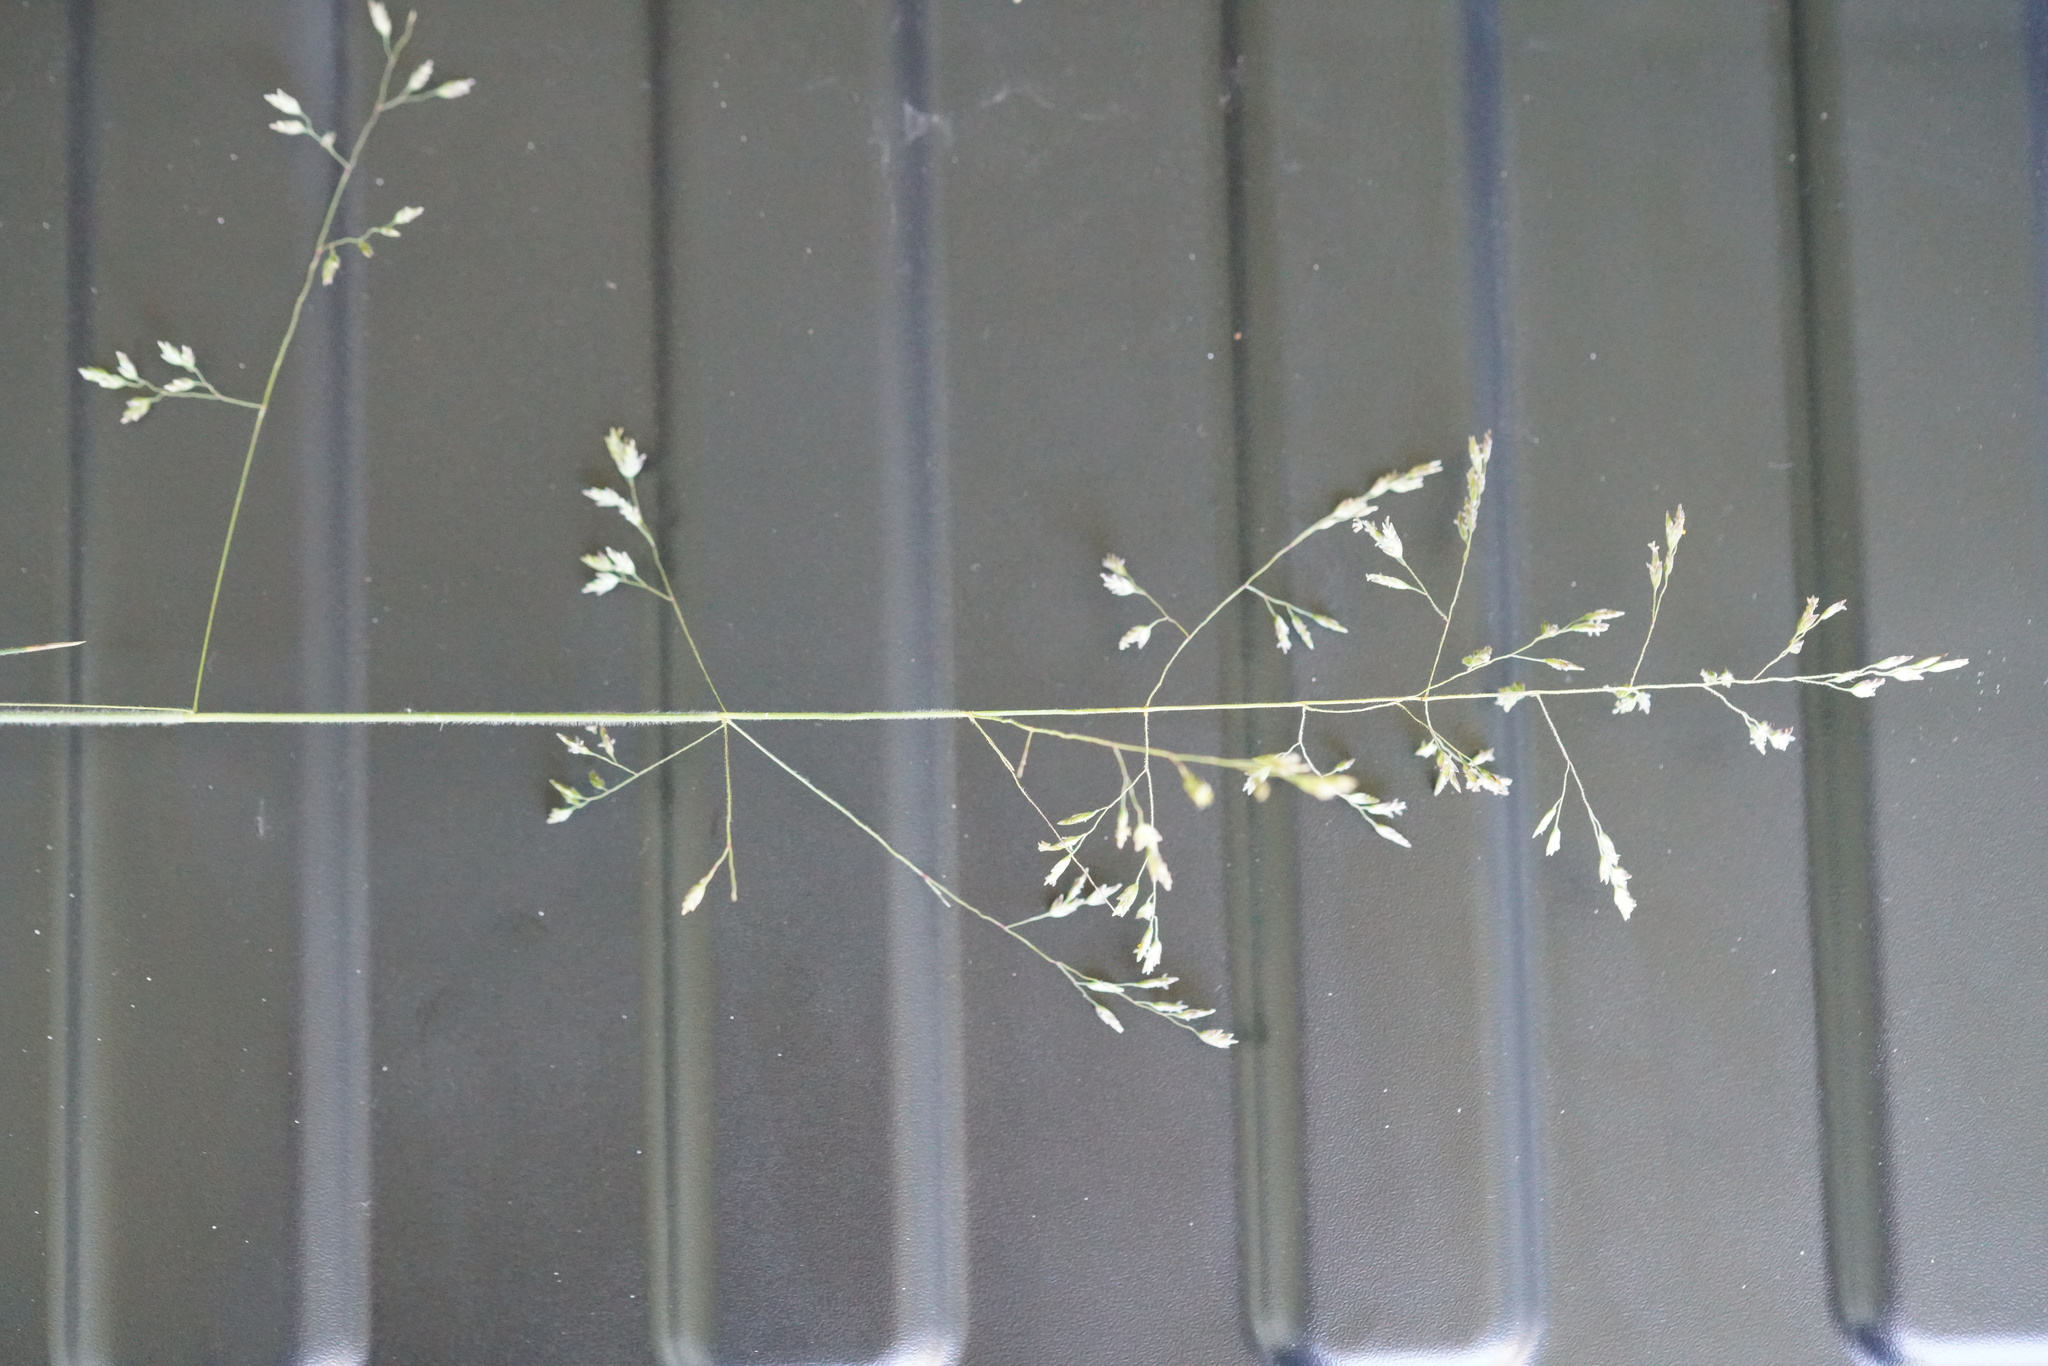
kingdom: Plantae
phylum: Tracheophyta
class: Liliopsida
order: Poales
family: Poaceae
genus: Poa
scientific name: Poa morrisii
